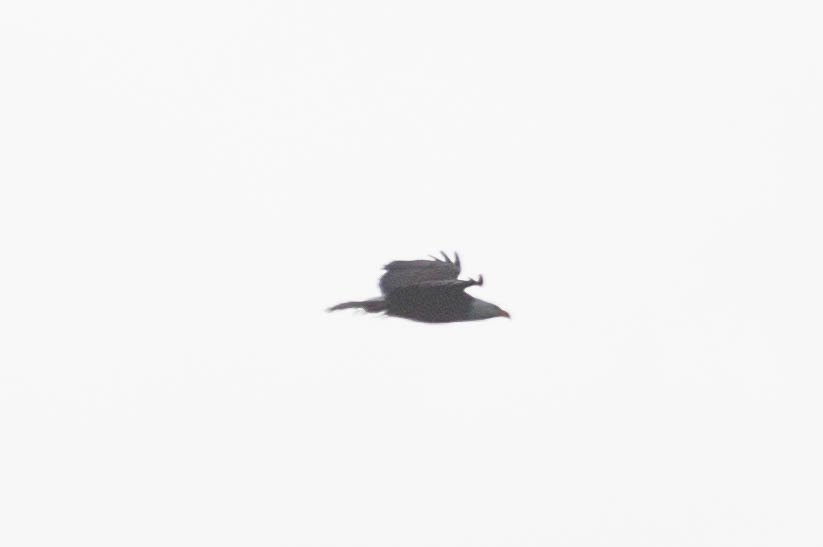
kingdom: Animalia
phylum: Chordata
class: Aves
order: Accipitriformes
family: Accipitridae
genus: Haliaeetus
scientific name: Haliaeetus leucocephalus
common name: Bald eagle
